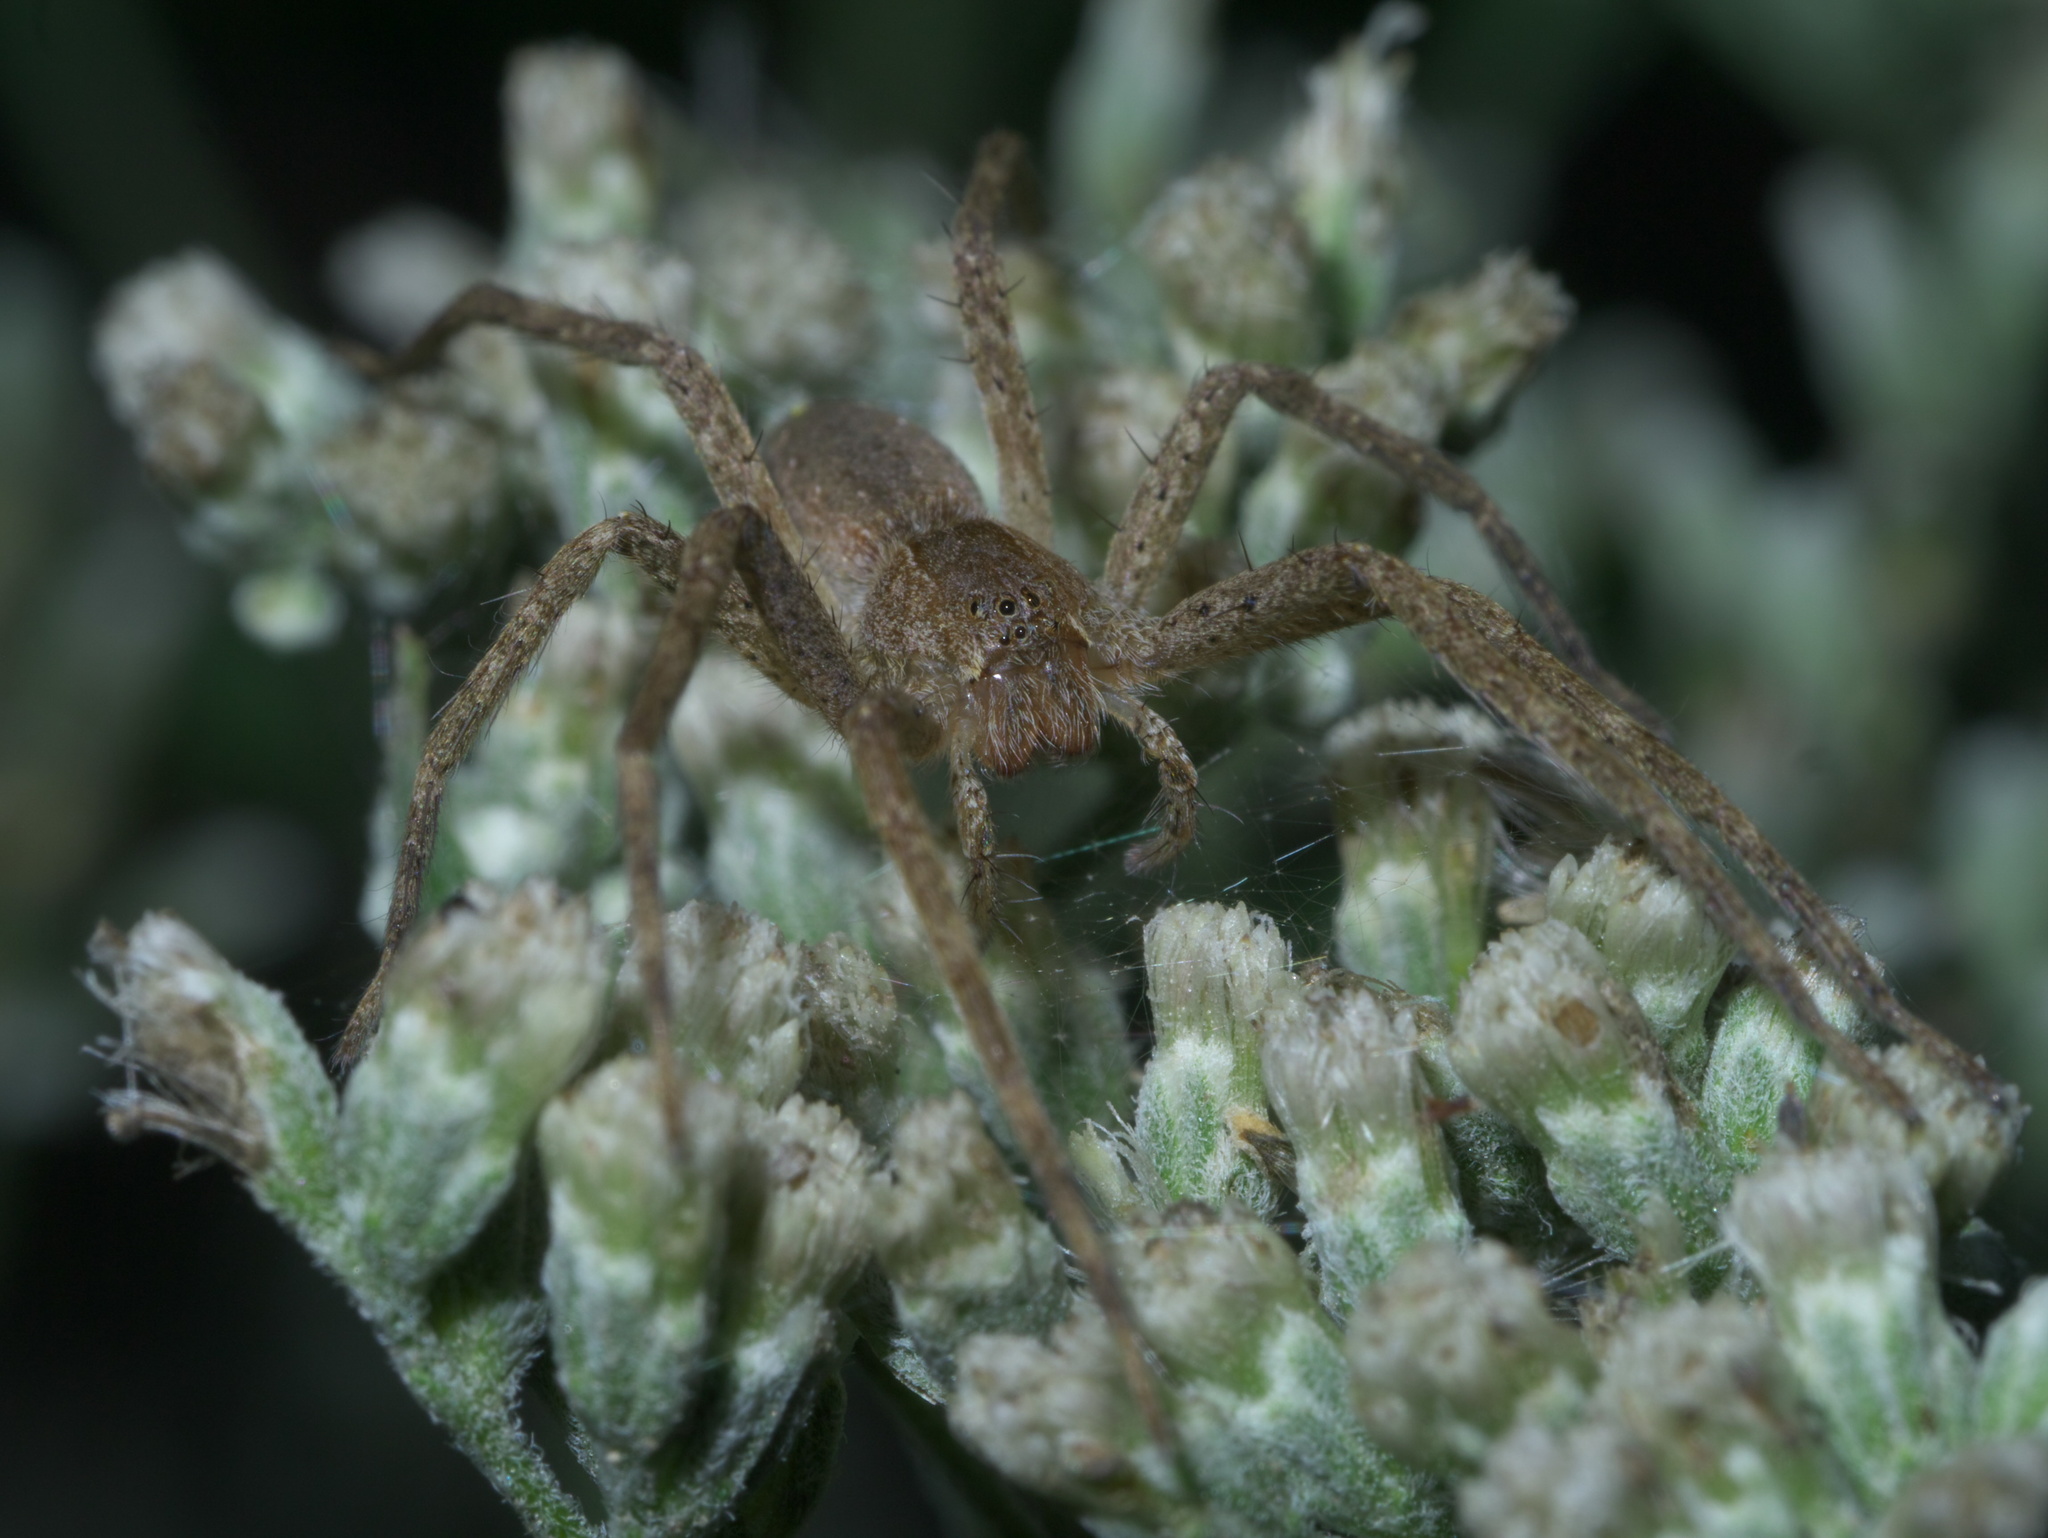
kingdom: Animalia
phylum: Arthropoda
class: Arachnida
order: Araneae
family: Pisauridae
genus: Pisaurina
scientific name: Pisaurina mira
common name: American nursery web spider
